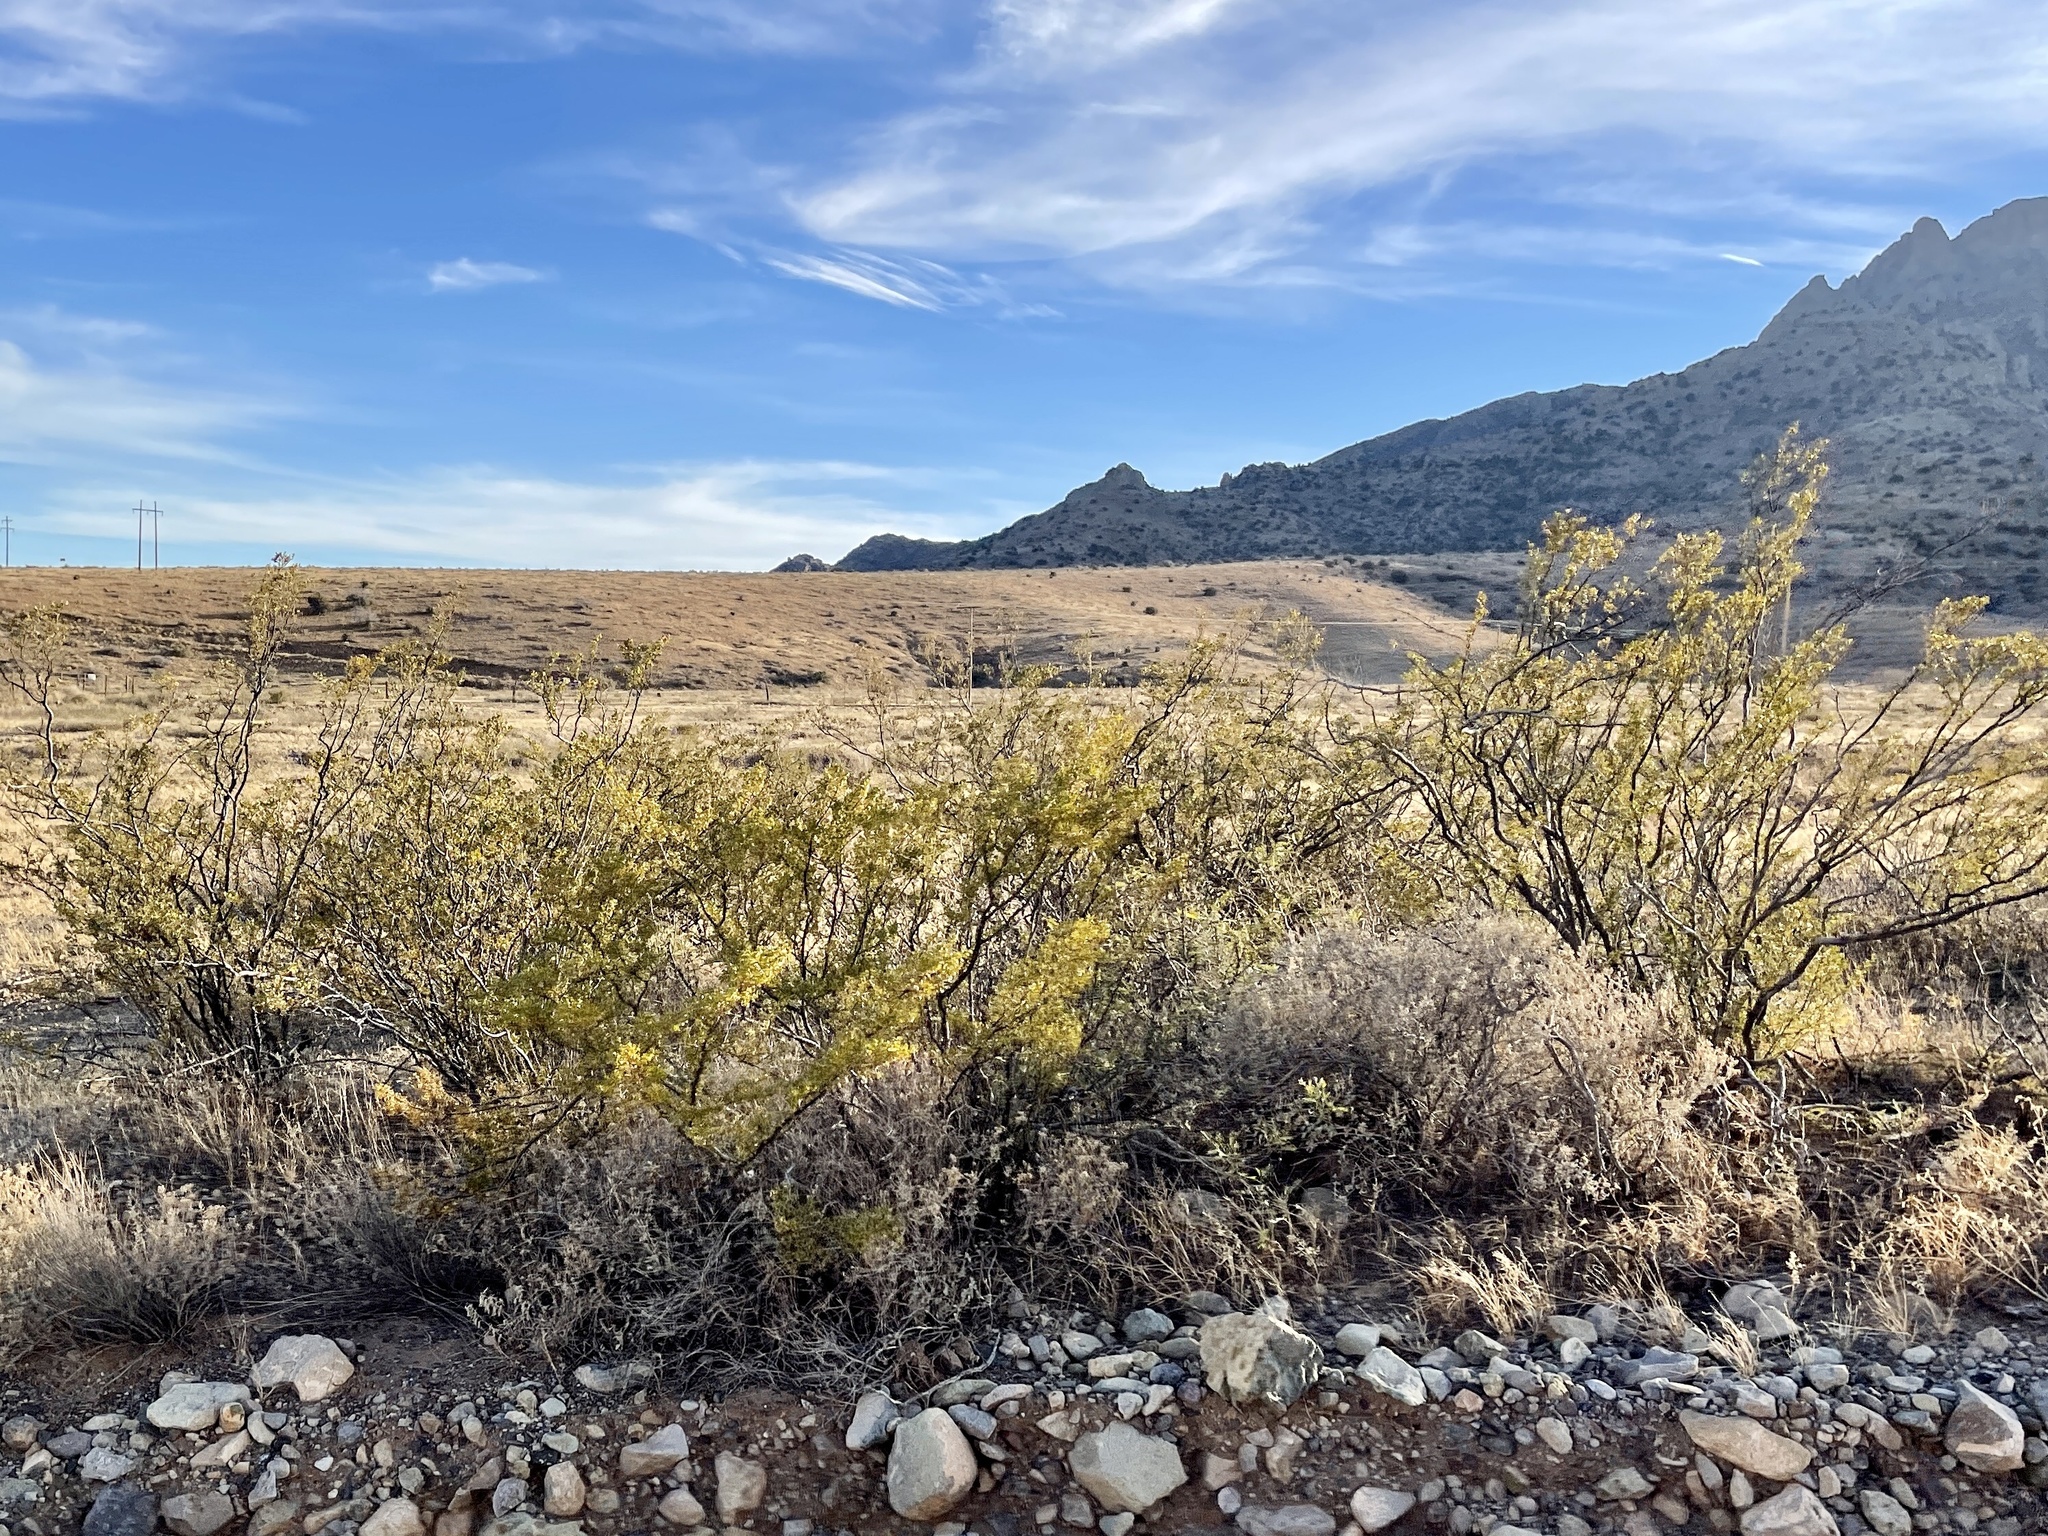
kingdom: Plantae
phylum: Tracheophyta
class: Magnoliopsida
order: Zygophyllales
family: Zygophyllaceae
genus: Larrea
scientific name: Larrea tridentata
